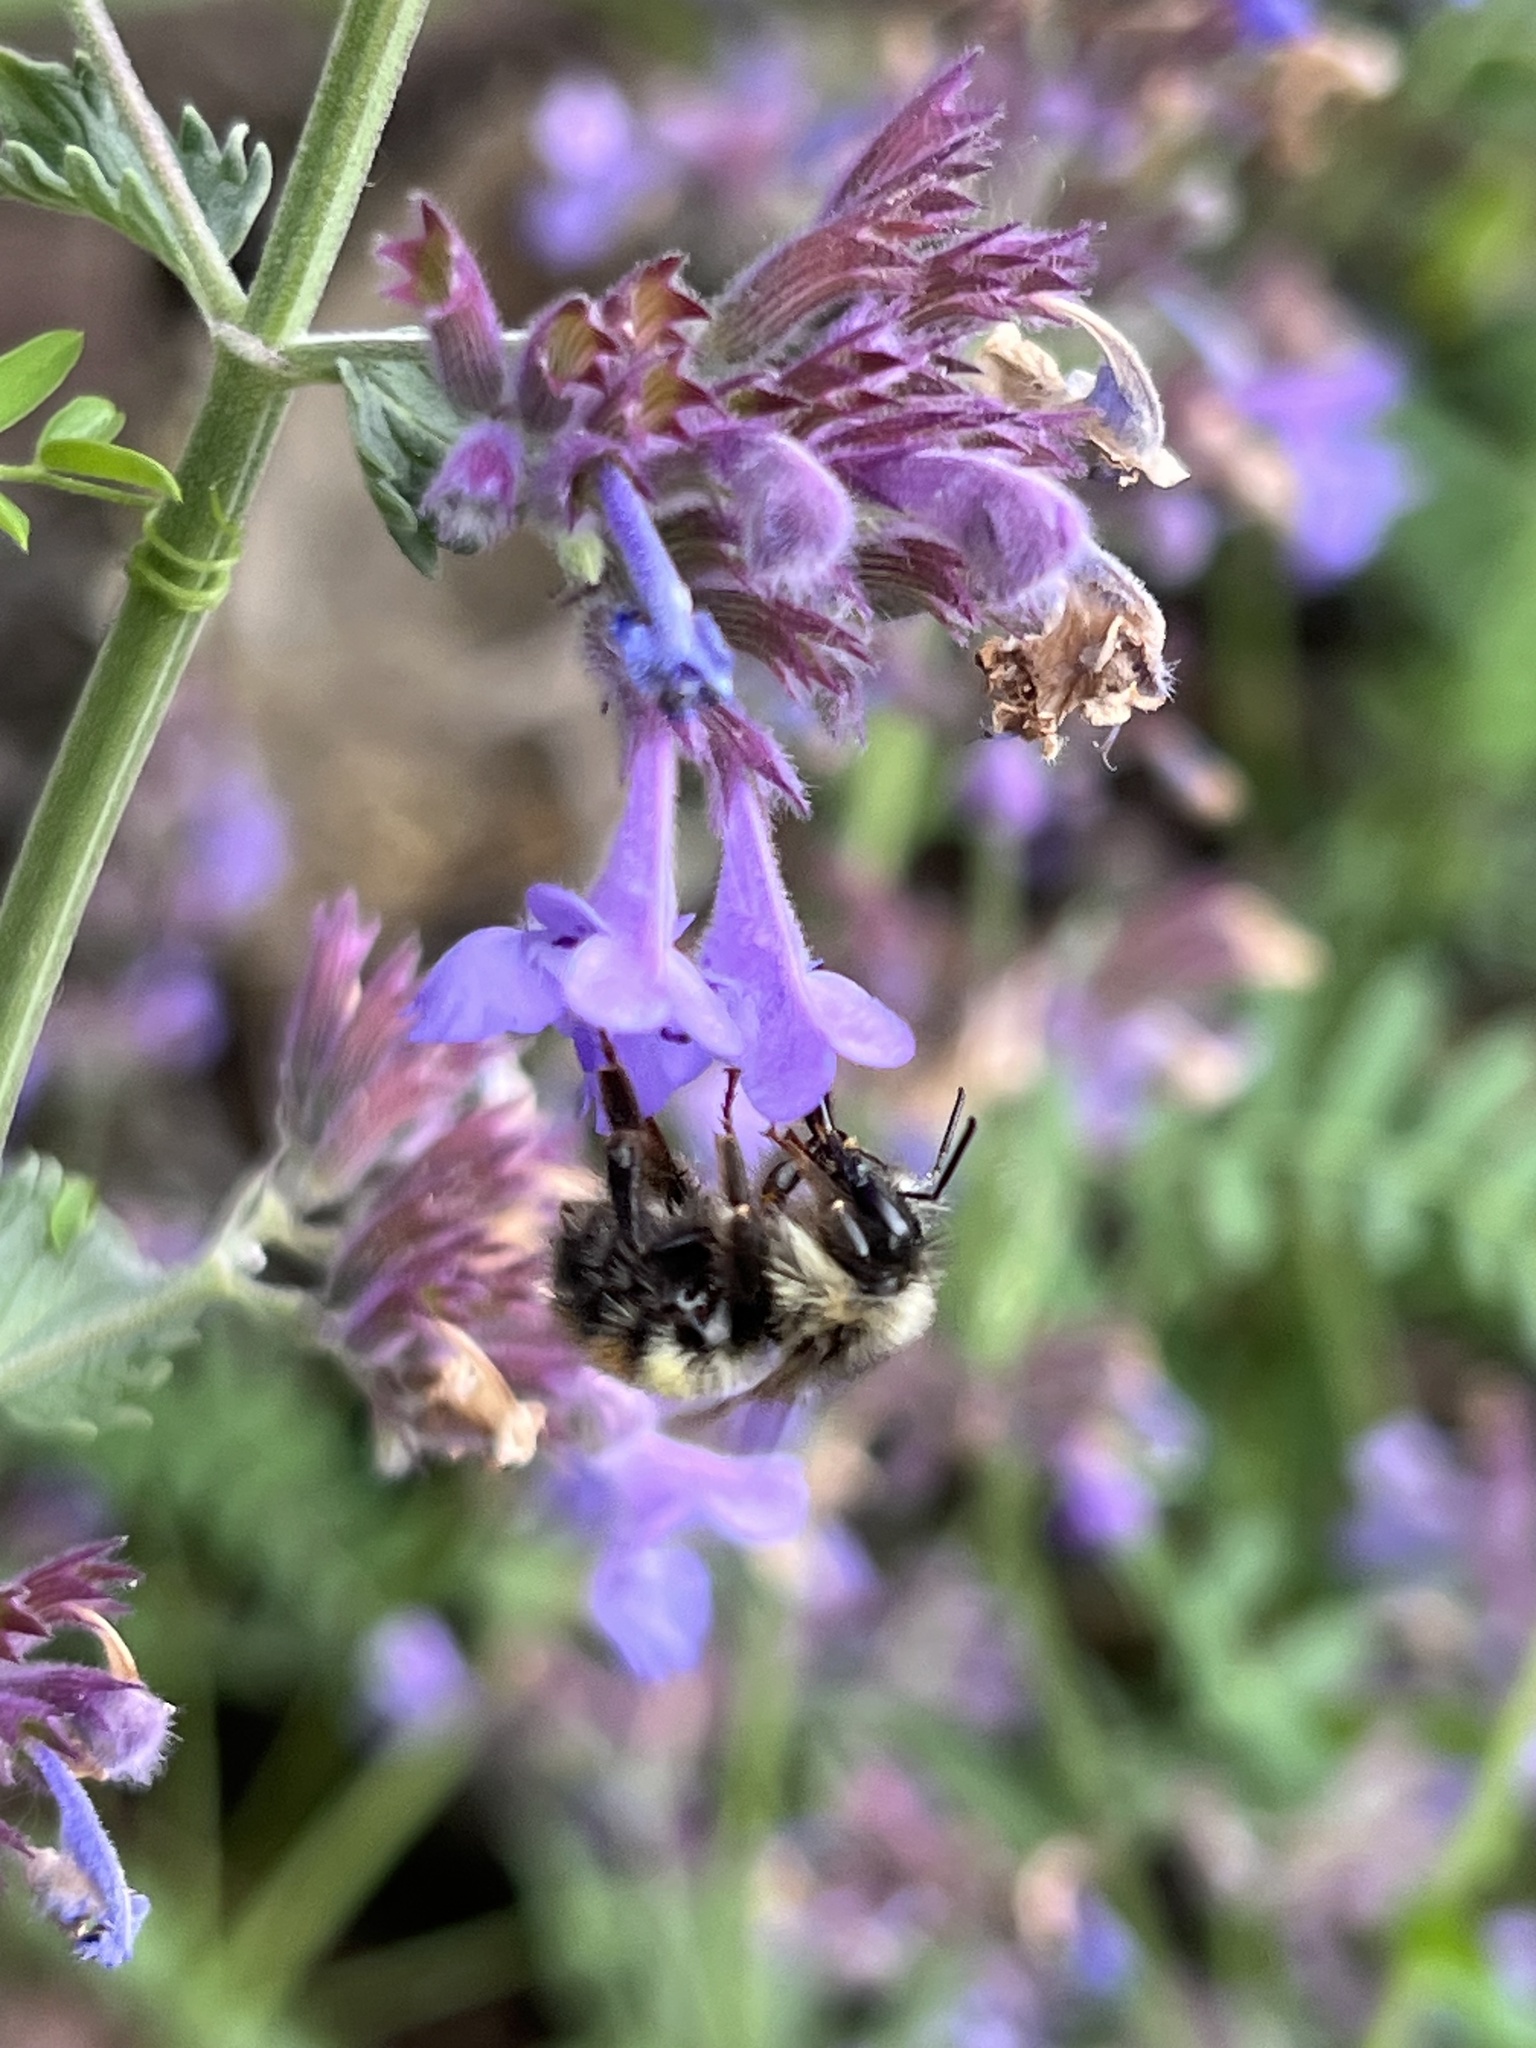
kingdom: Animalia
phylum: Arthropoda
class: Insecta
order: Hymenoptera
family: Apidae
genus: Bombus
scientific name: Bombus flavifrons
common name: Yellow head bumble bee
